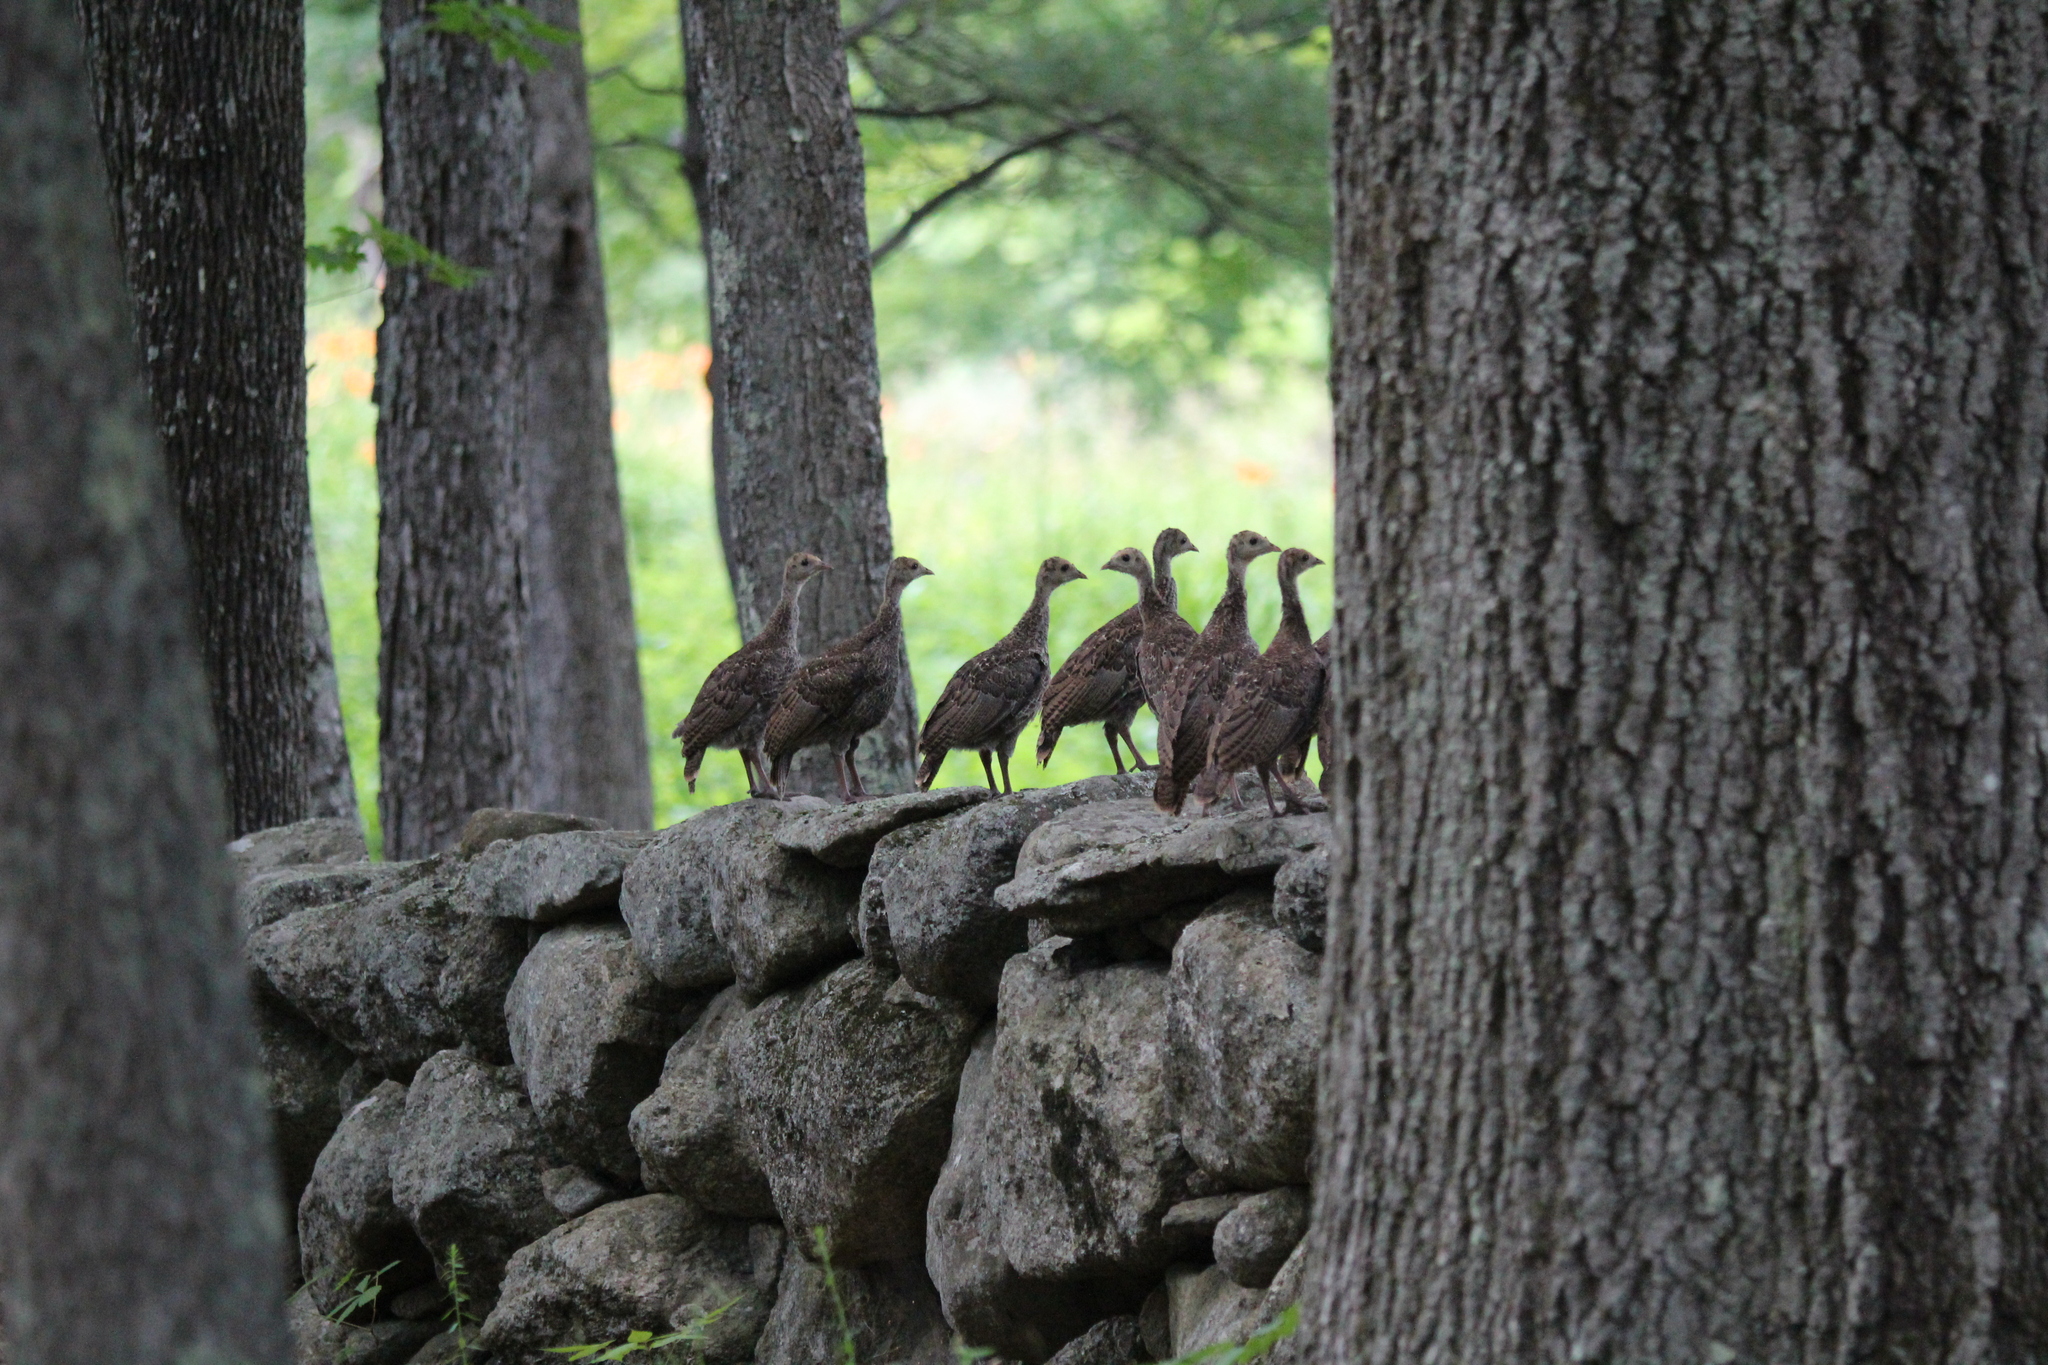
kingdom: Animalia
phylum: Chordata
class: Aves
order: Galliformes
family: Phasianidae
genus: Meleagris
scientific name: Meleagris gallopavo
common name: Wild turkey
